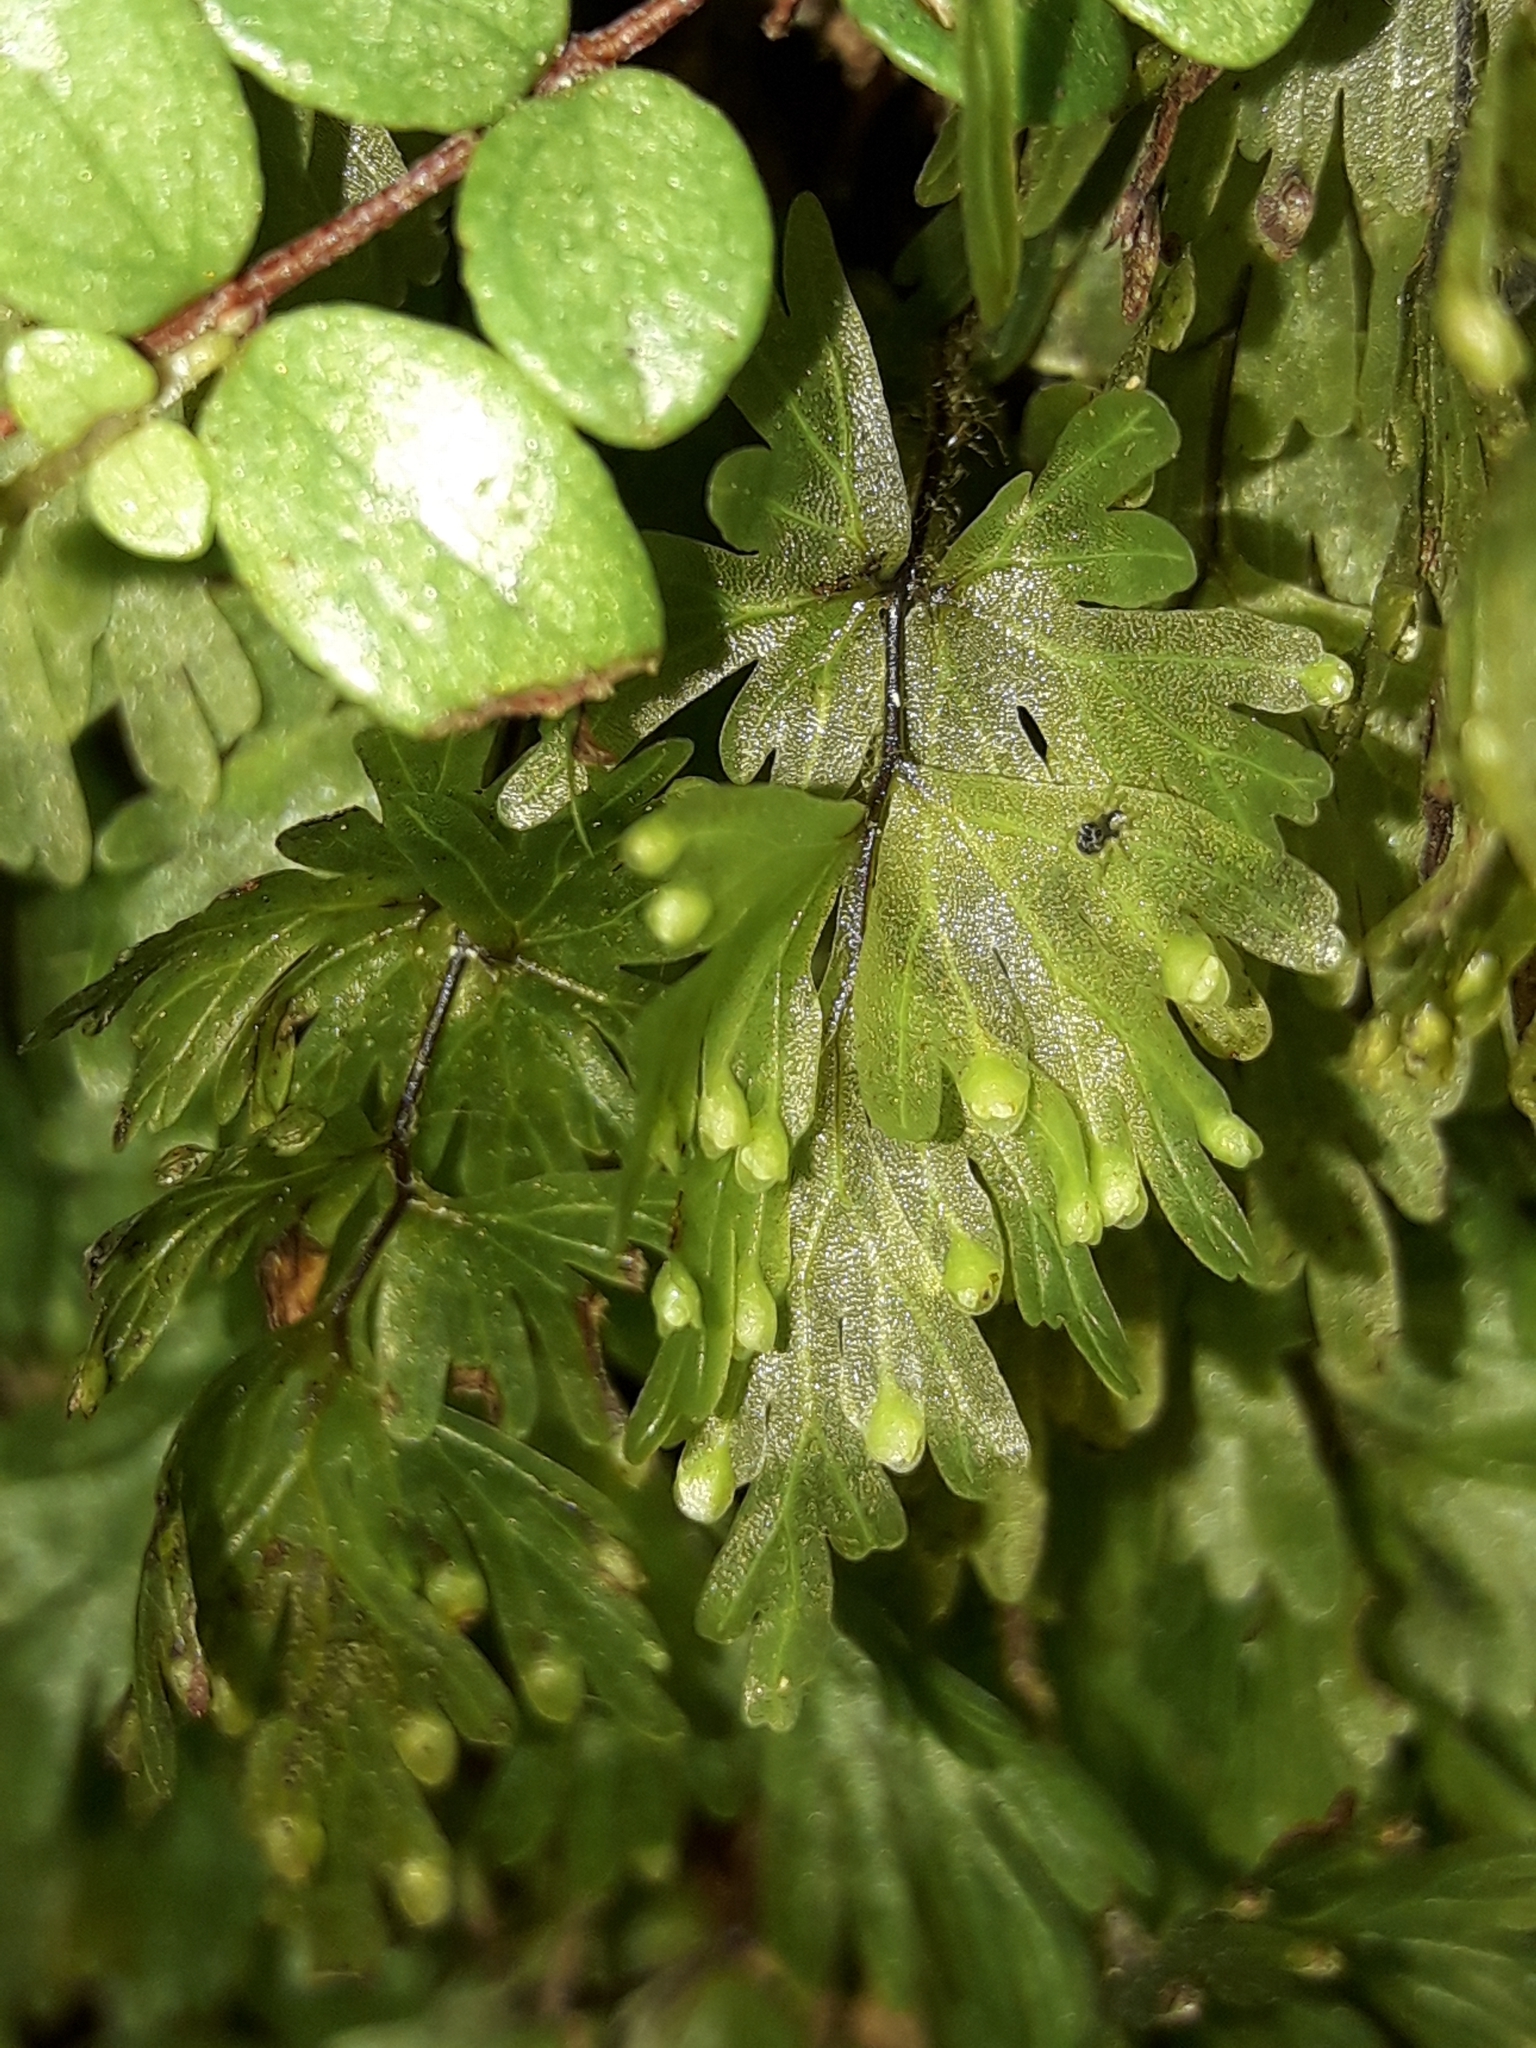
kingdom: Plantae
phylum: Tracheophyta
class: Polypodiopsida
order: Hymenophyllales
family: Hymenophyllaceae
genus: Hymenophyllum
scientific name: Hymenophyllum flabellatum
